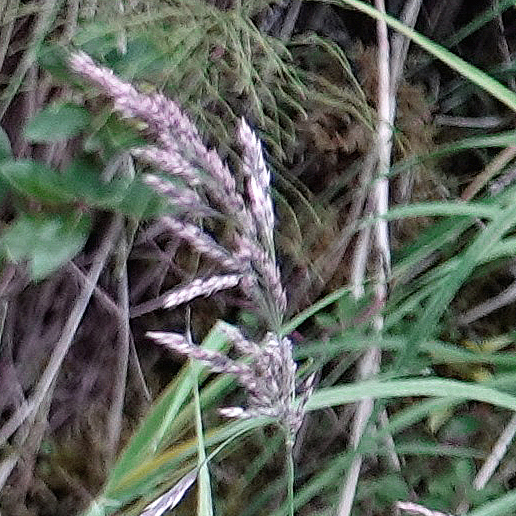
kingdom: Plantae
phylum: Tracheophyta
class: Liliopsida
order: Poales
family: Poaceae
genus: Calamagrostis
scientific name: Calamagrostis canadensis
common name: Canada bluejoint
